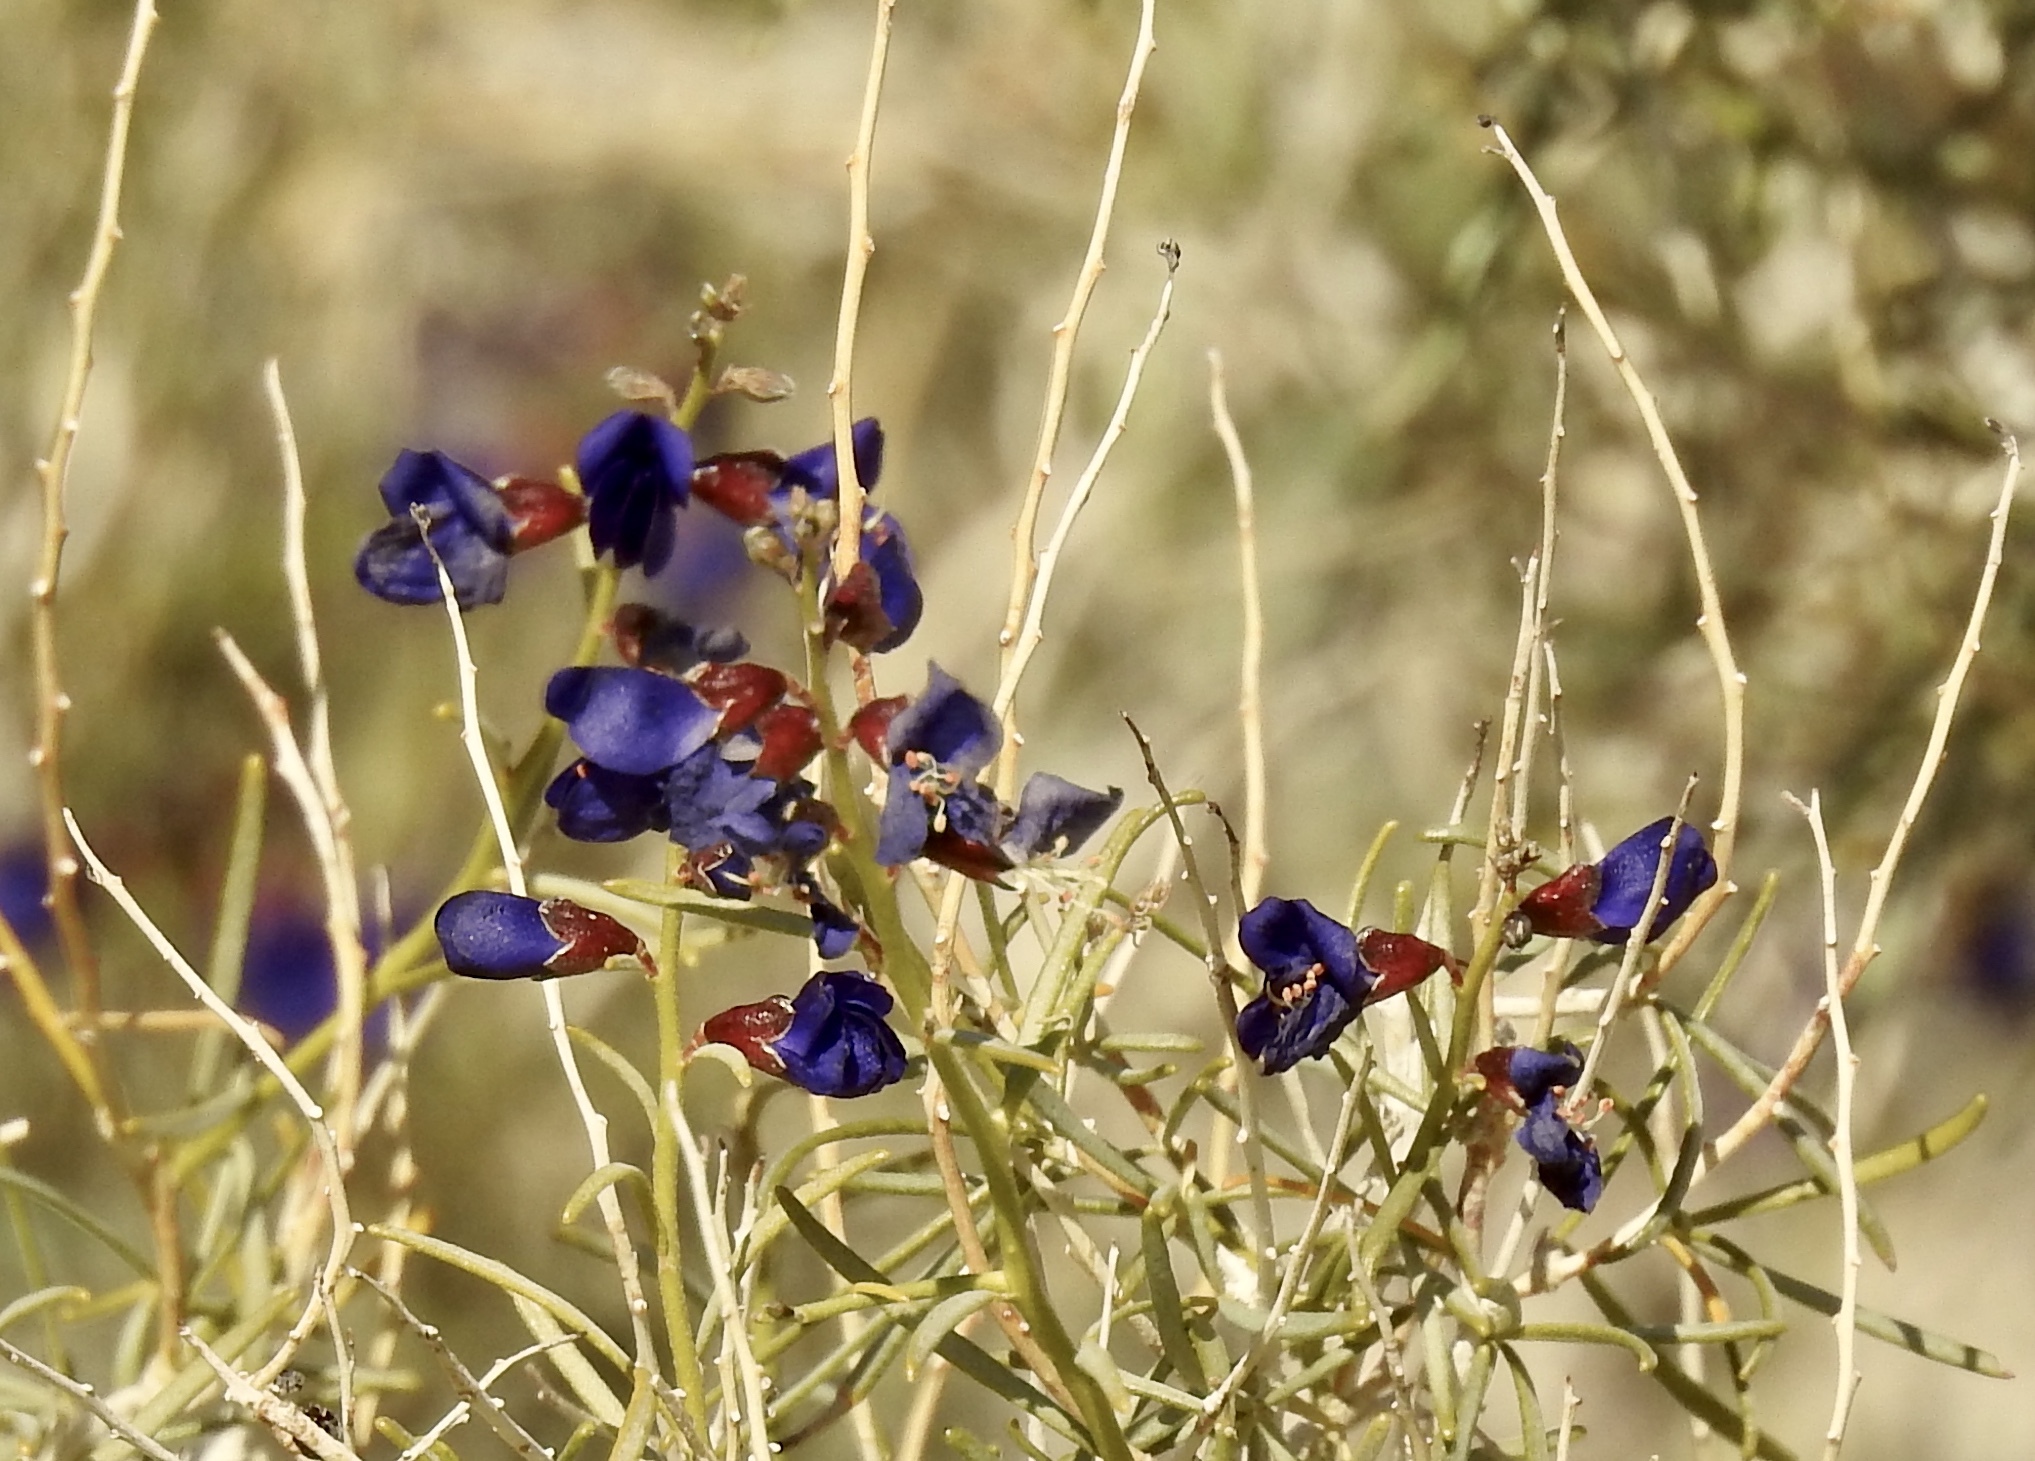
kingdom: Plantae
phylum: Tracheophyta
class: Magnoliopsida
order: Fabales
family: Fabaceae
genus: Psorothamnus
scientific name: Psorothamnus schottii
